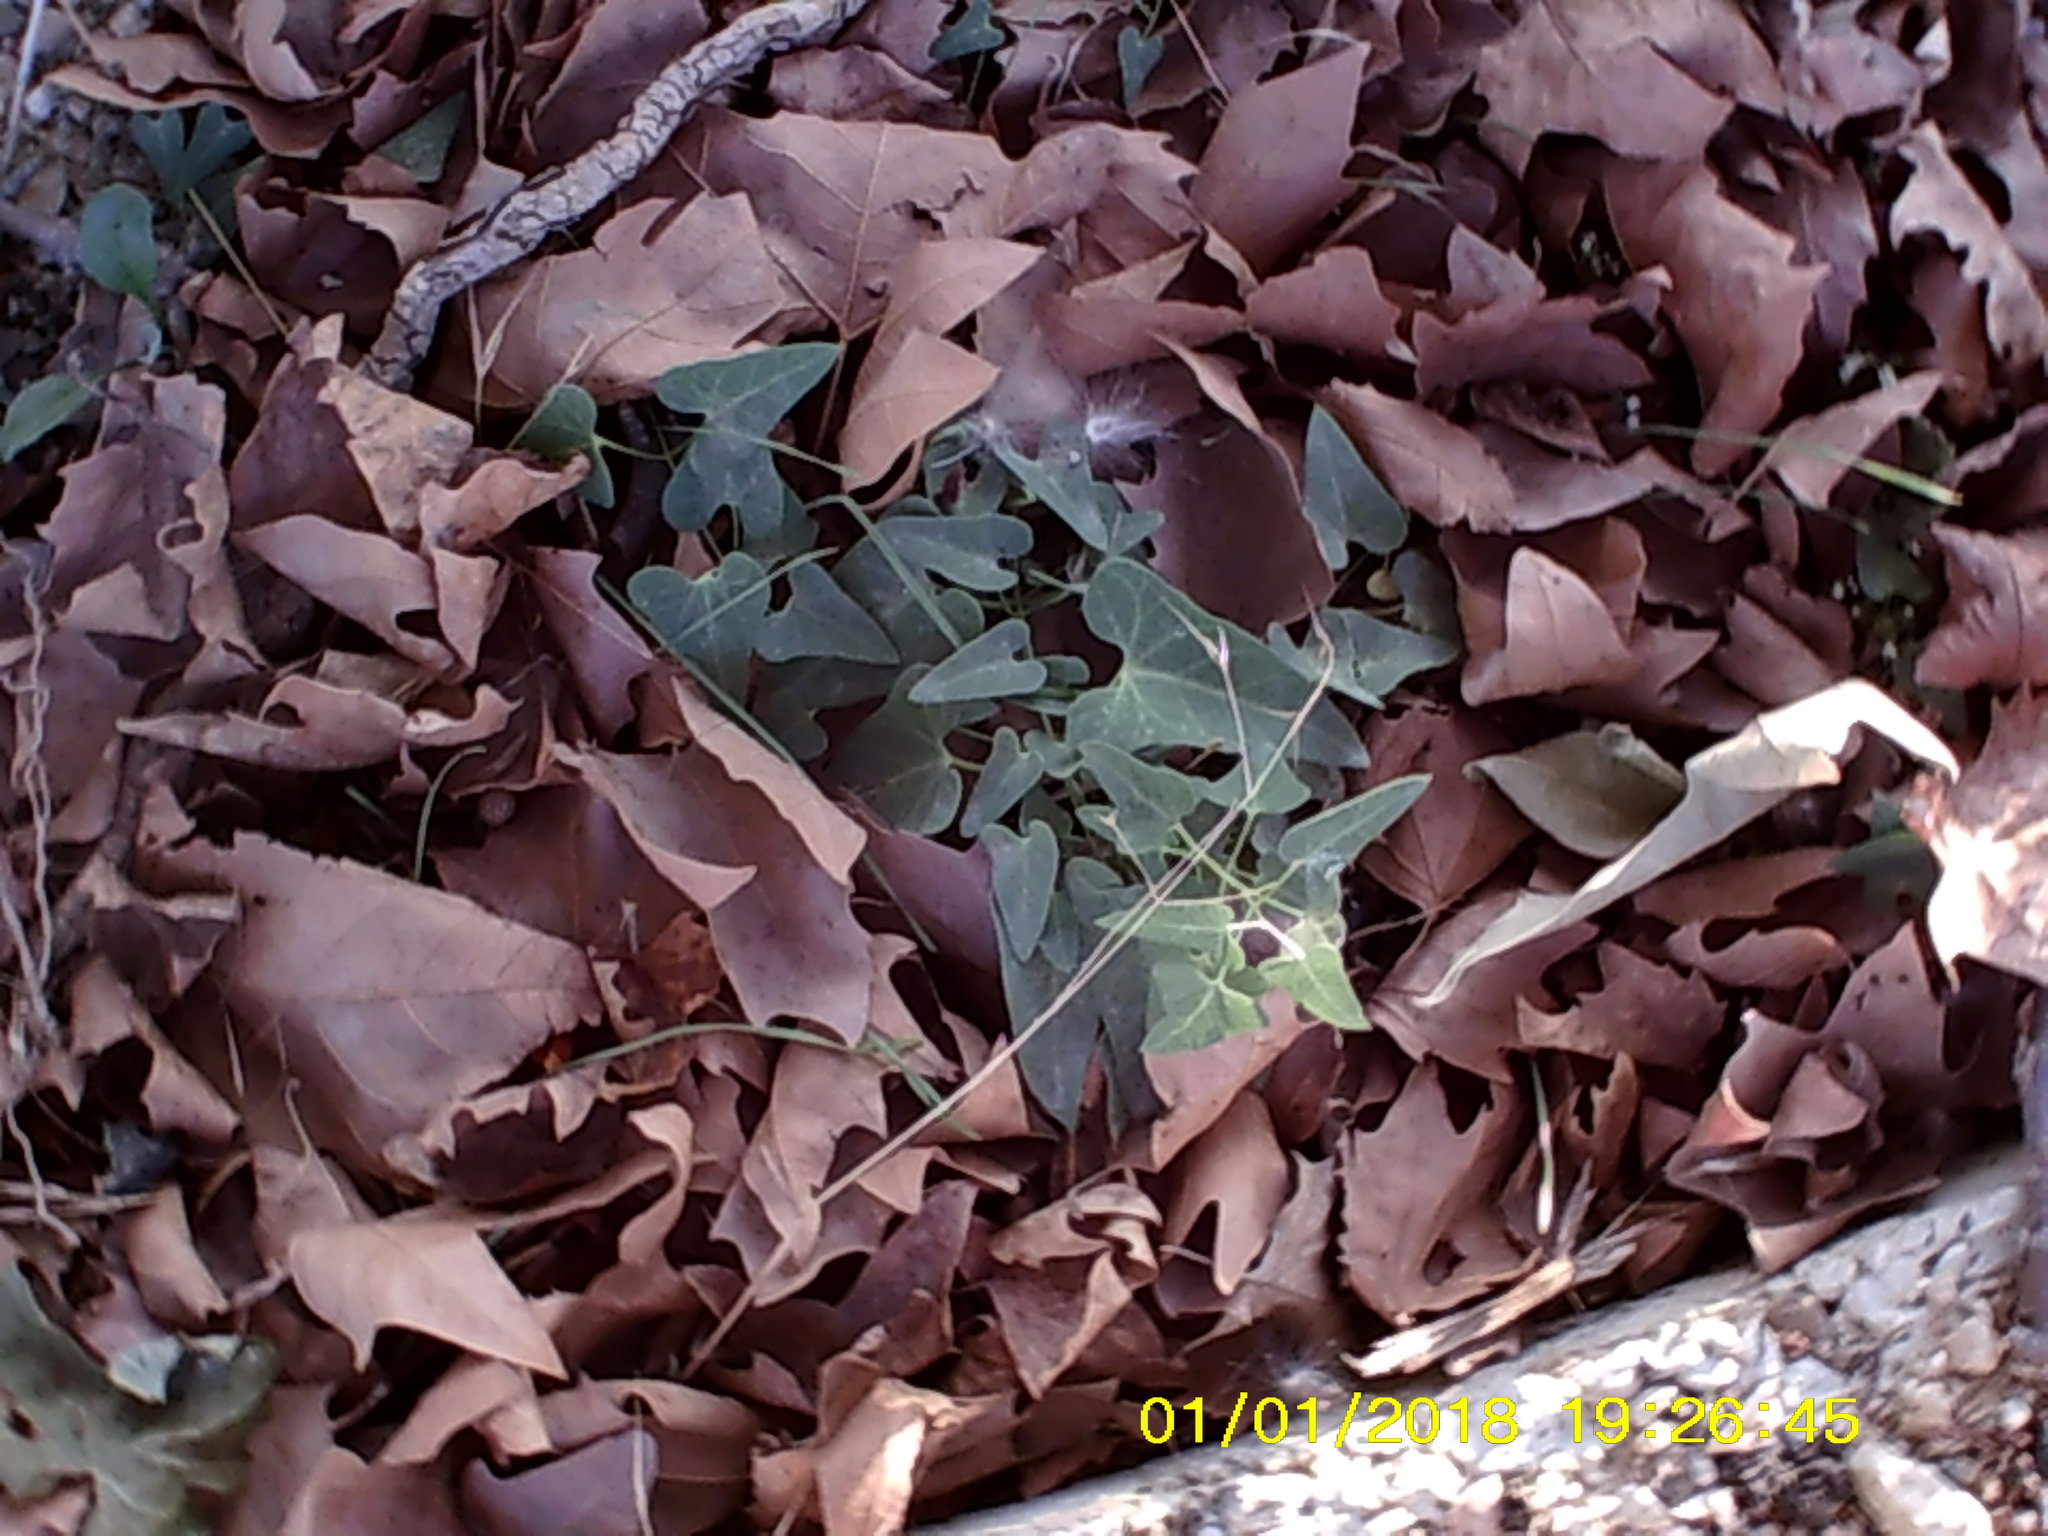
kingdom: Plantae
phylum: Tracheophyta
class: Magnoliopsida
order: Gentianales
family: Apocynaceae
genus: Cynanchum
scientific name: Cynanchum acutum
